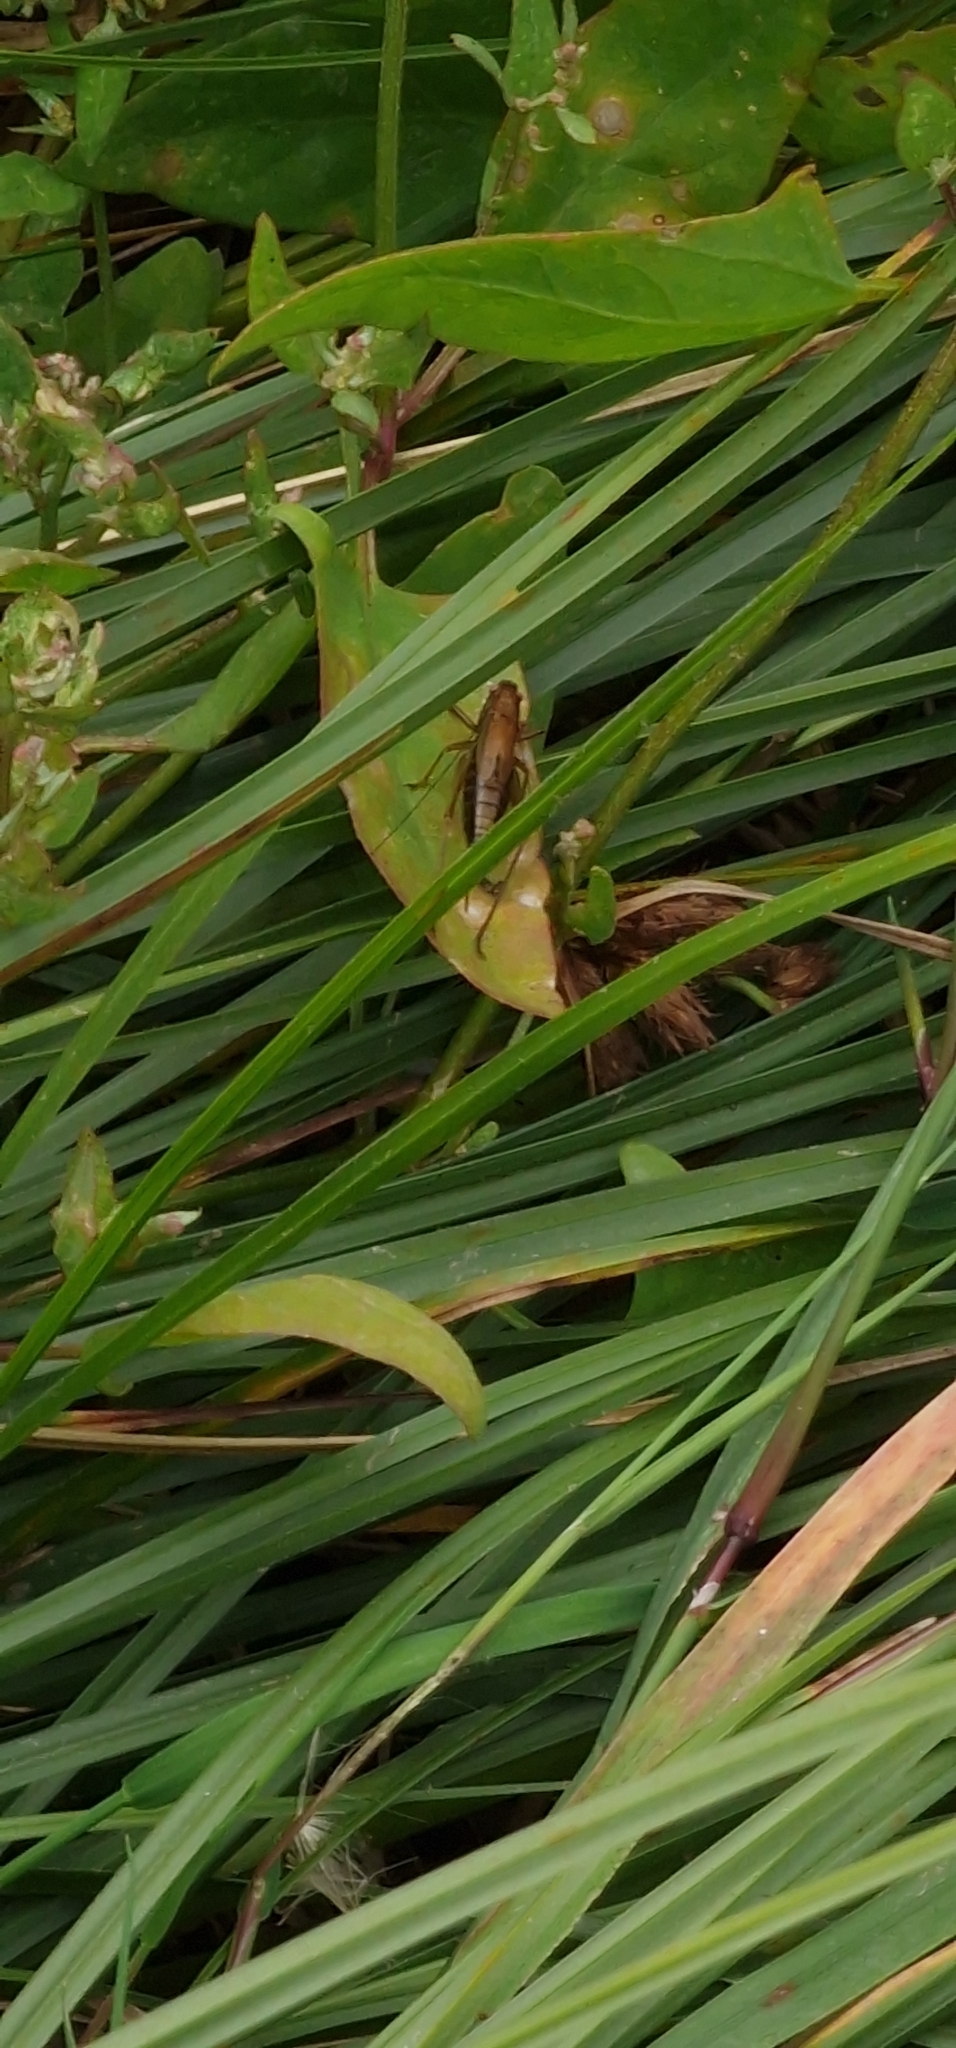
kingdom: Animalia
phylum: Arthropoda
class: Insecta
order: Orthoptera
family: Tettigoniidae
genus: Conocephalus
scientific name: Conocephalus dorsalis
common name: Short-winged conehead
